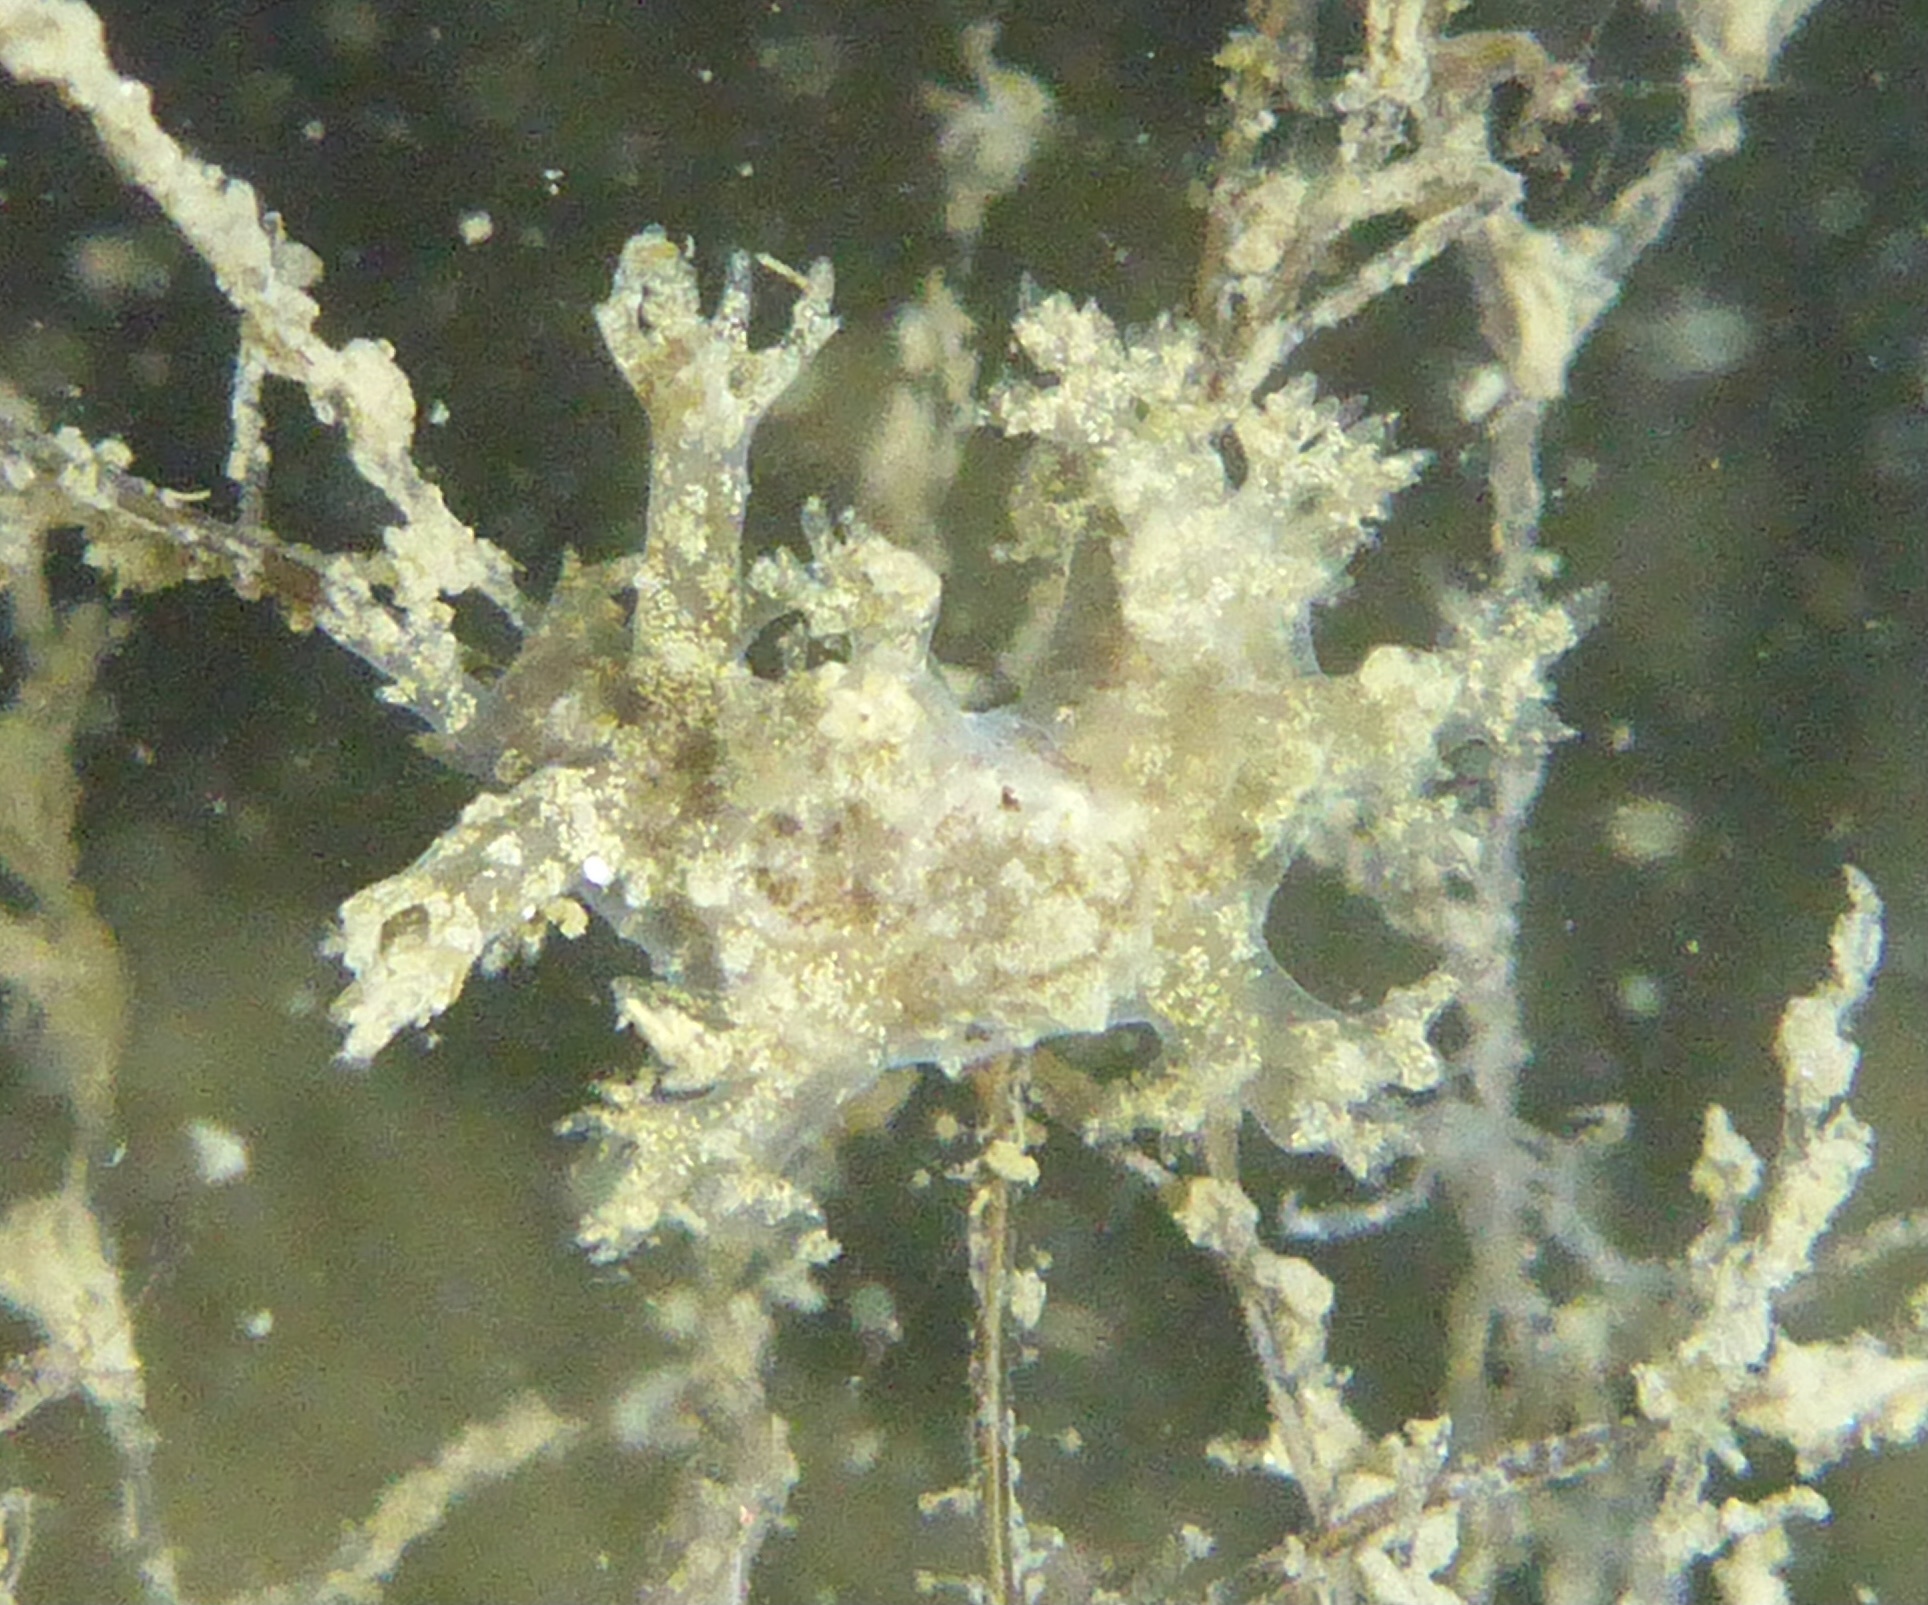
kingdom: Animalia
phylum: Mollusca
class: Gastropoda
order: Nudibranchia
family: Dendronotidae
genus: Dendronotus
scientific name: Dendronotus venustus
